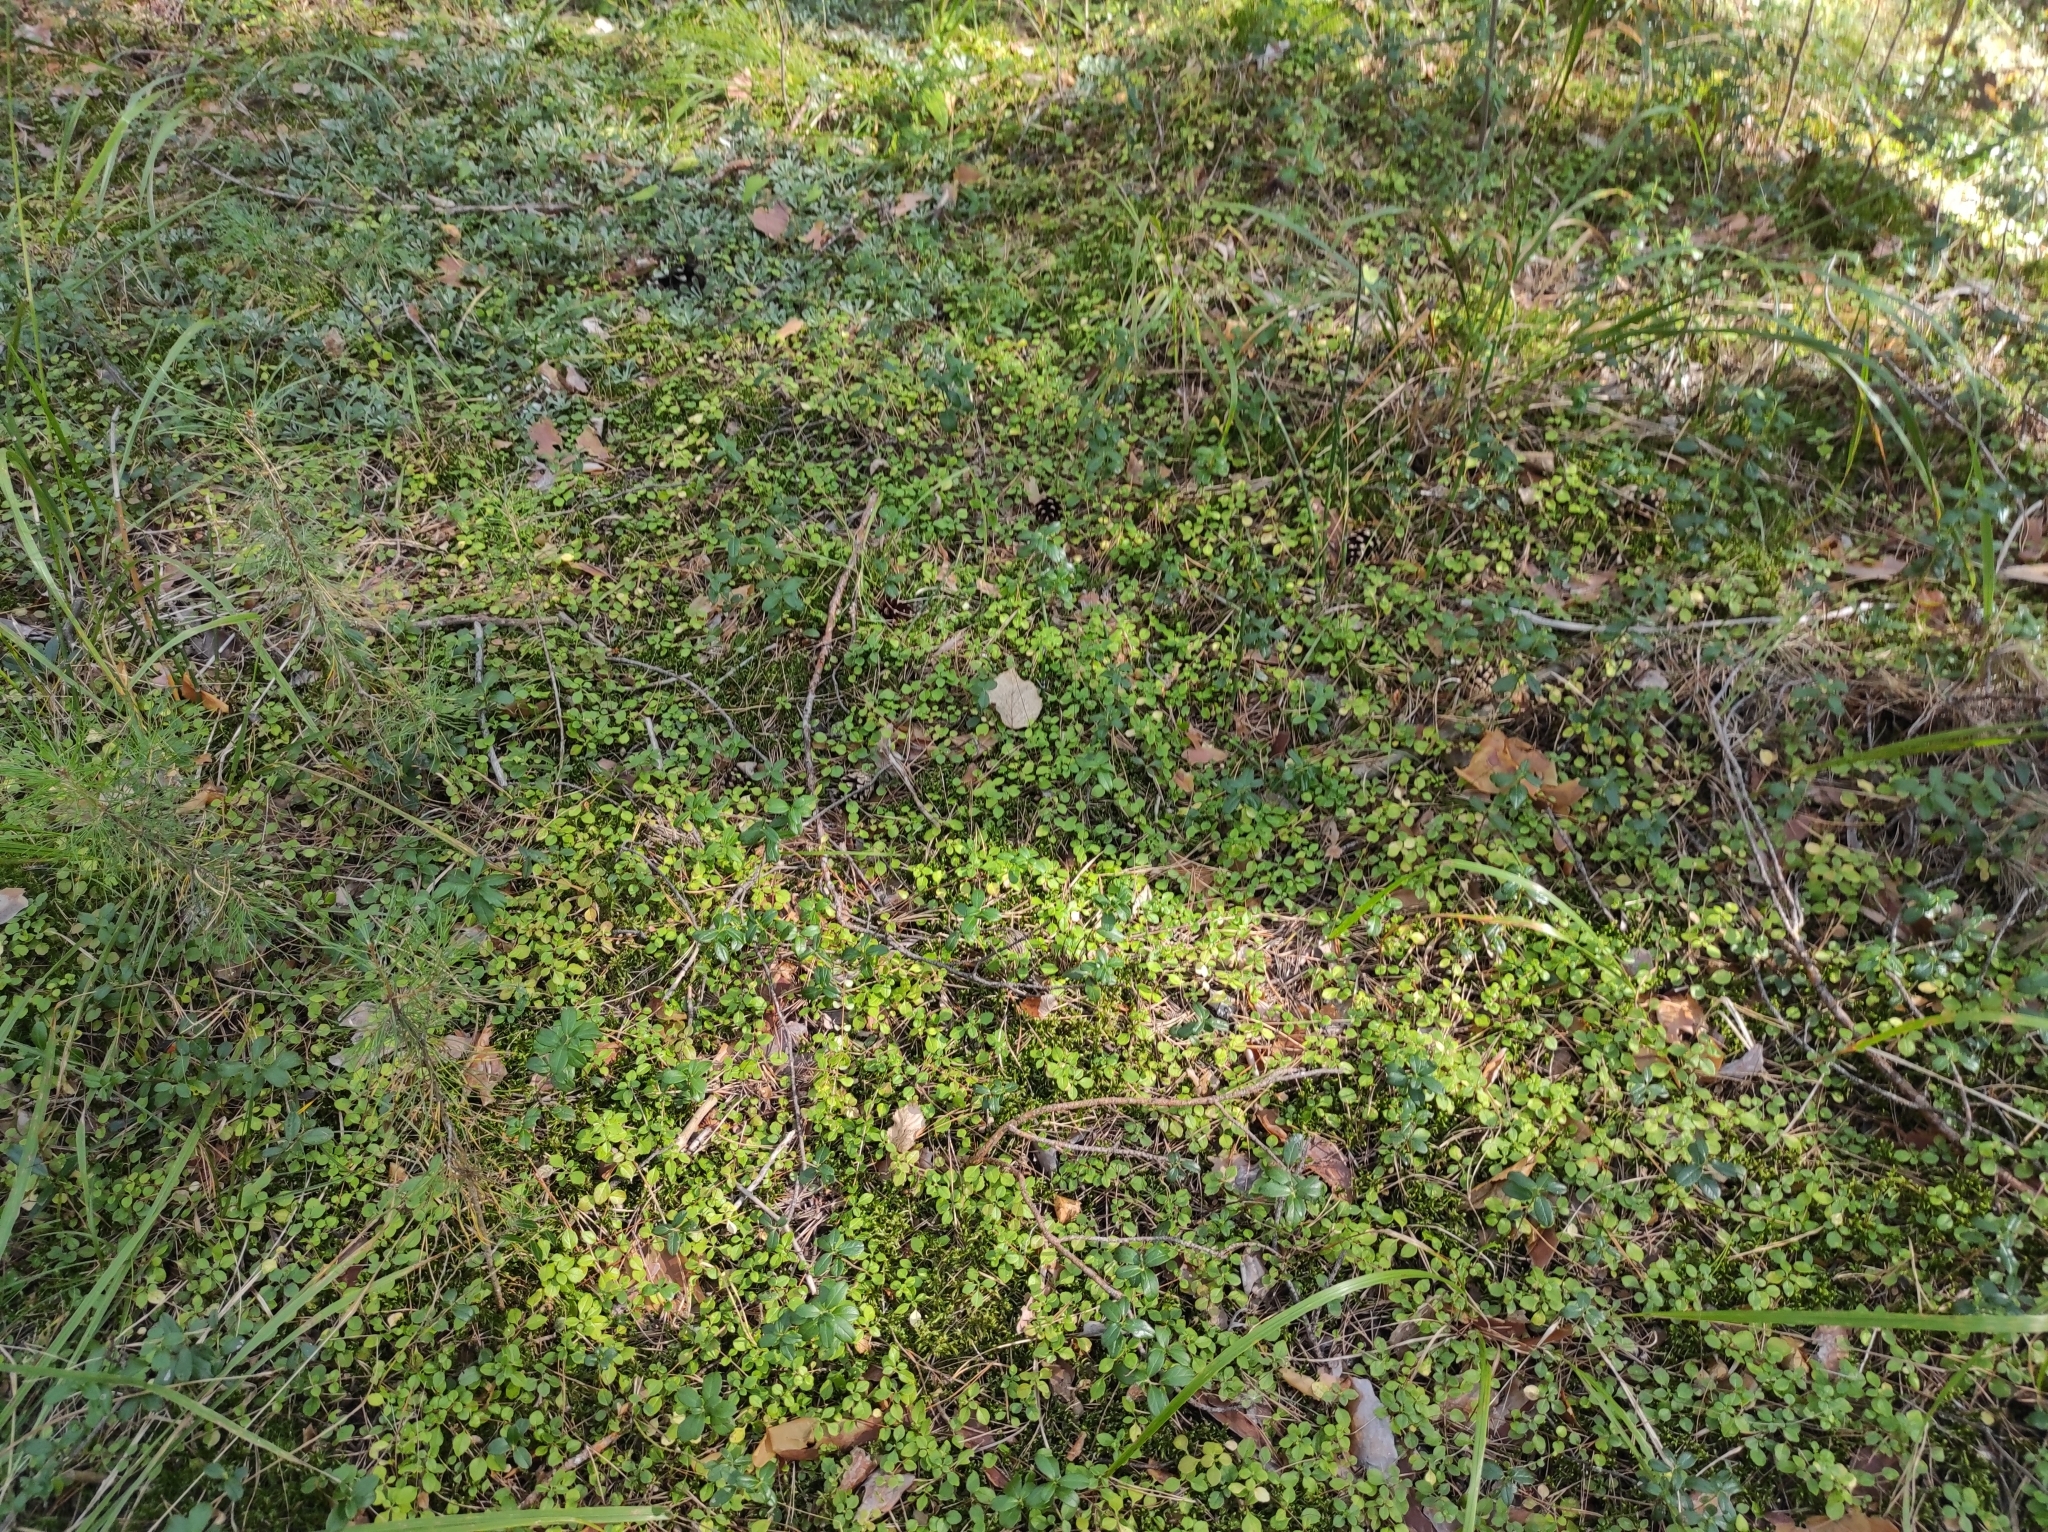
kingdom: Plantae
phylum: Tracheophyta
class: Magnoliopsida
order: Dipsacales
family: Caprifoliaceae
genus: Linnaea
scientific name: Linnaea borealis
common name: Twinflower
